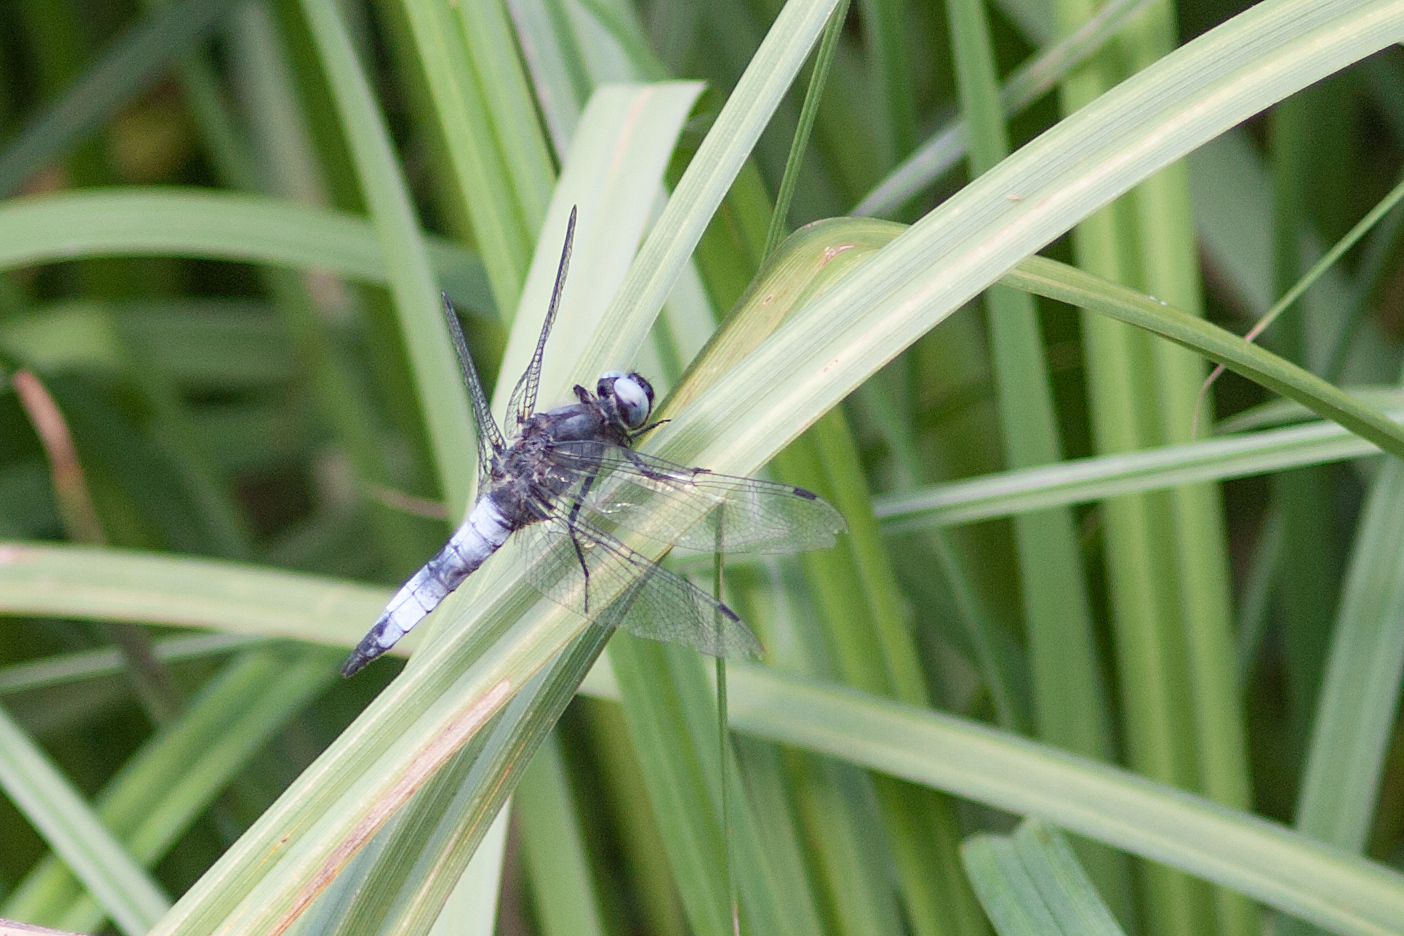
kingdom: Animalia
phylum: Arthropoda
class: Insecta
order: Odonata
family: Libellulidae
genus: Libellula
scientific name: Libellula fulva
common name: Blue chaser
